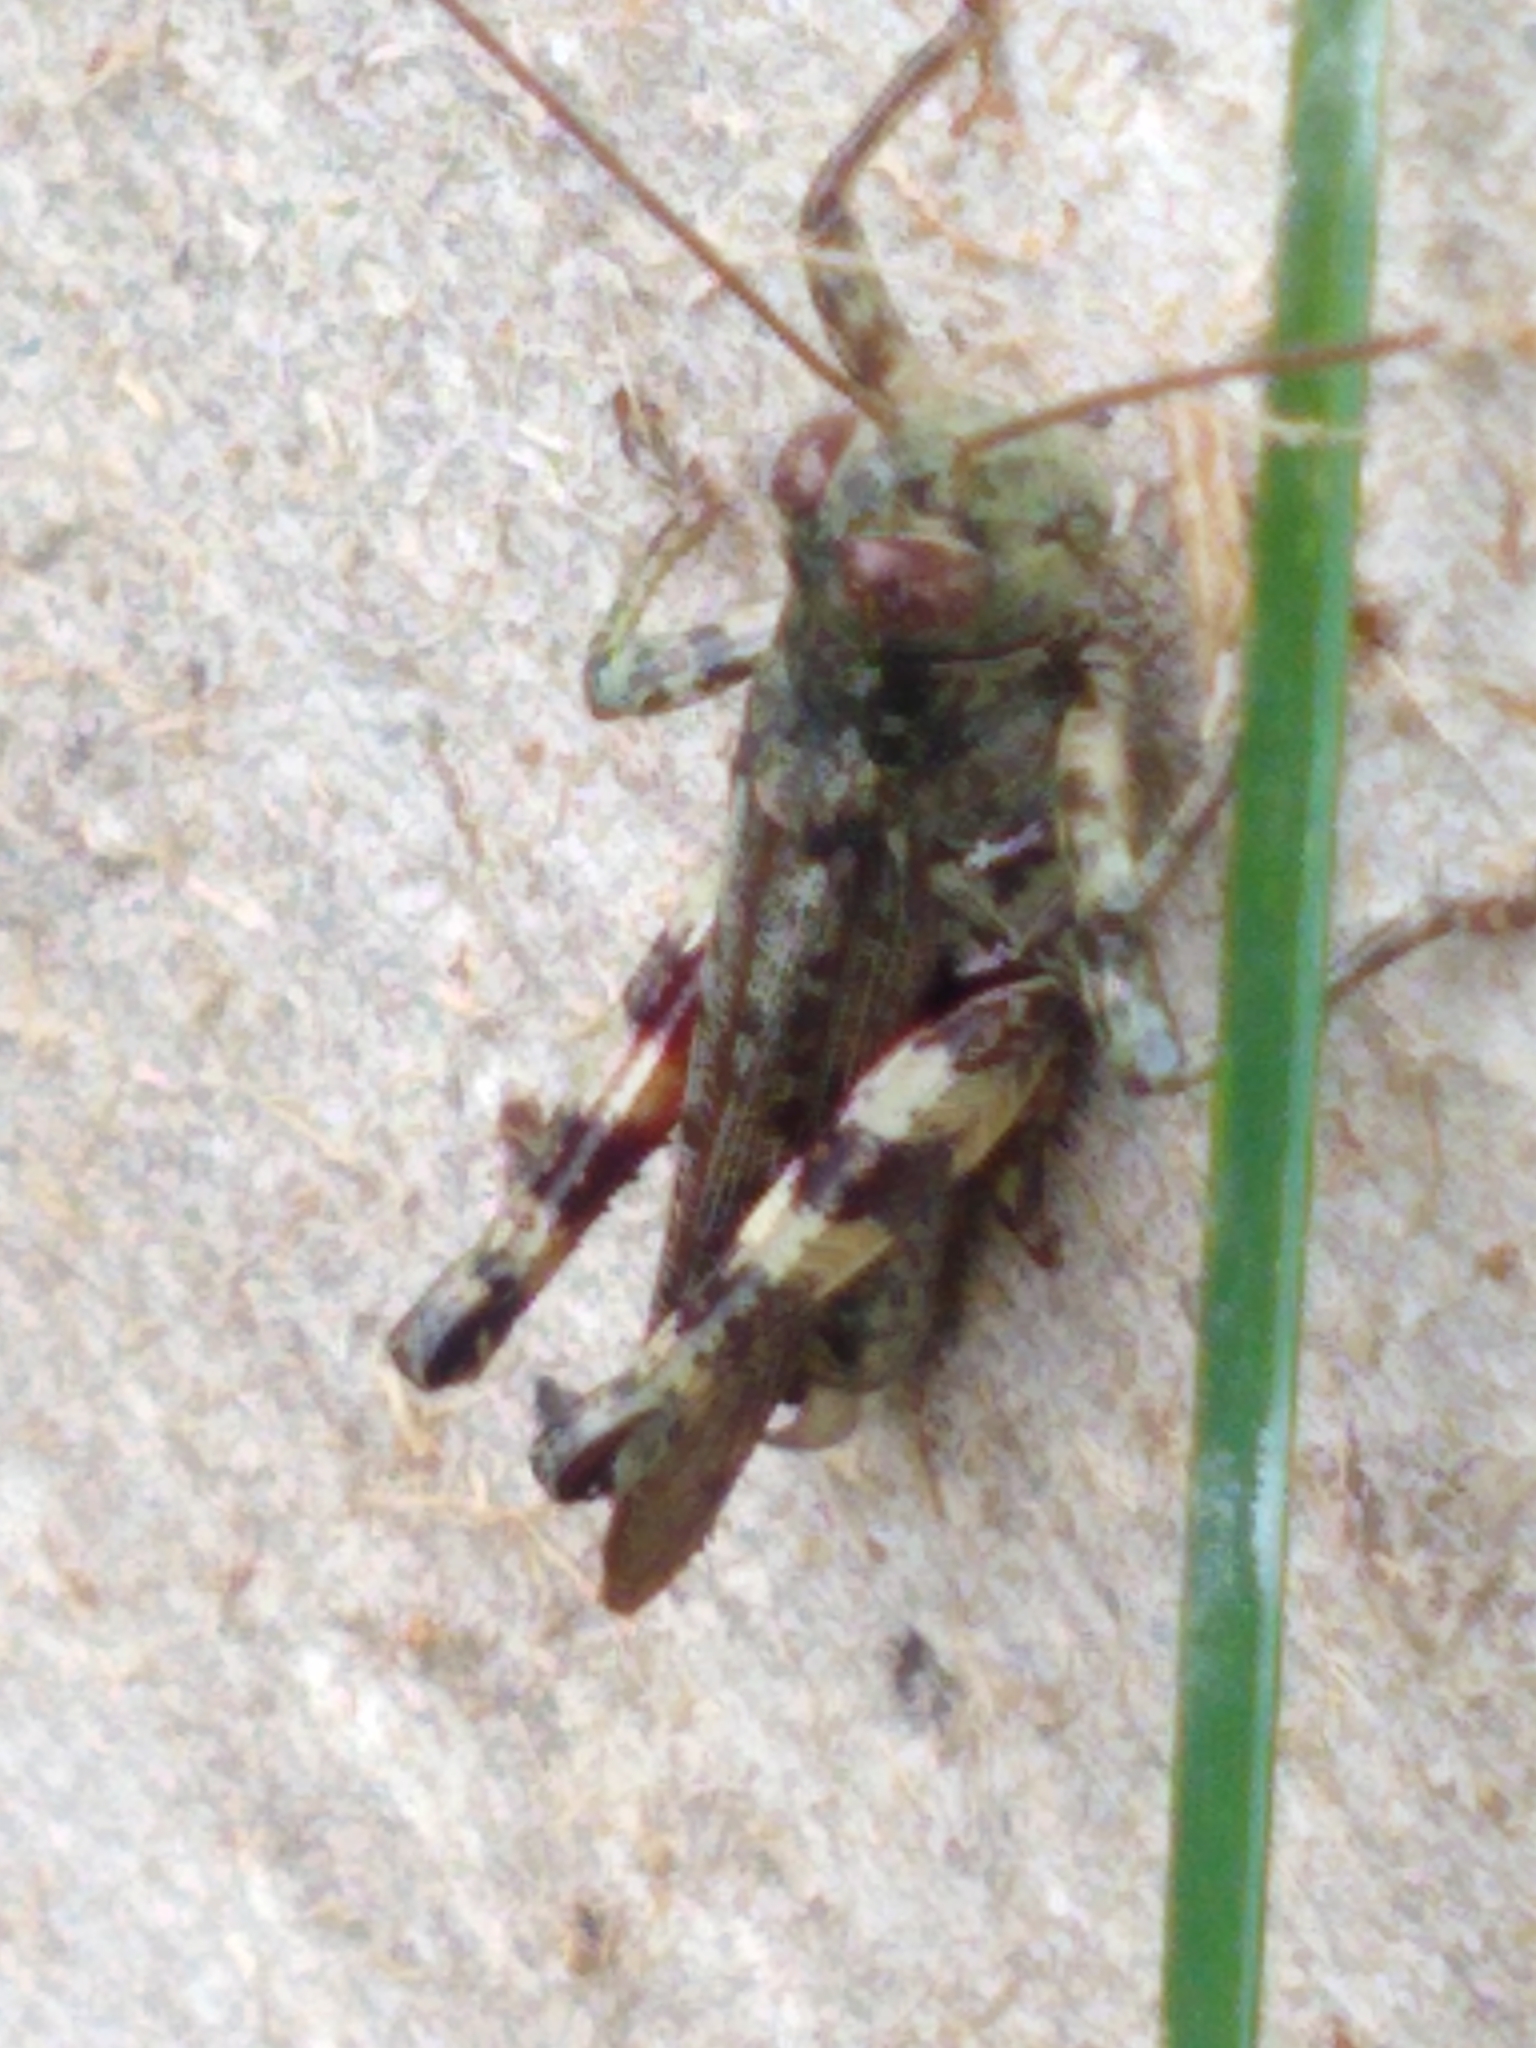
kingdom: Animalia
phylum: Arthropoda
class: Insecta
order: Orthoptera
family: Acrididae
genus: Melanoplus
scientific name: Melanoplus punctulatus
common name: Pine-tree spur-throat grasshopper
